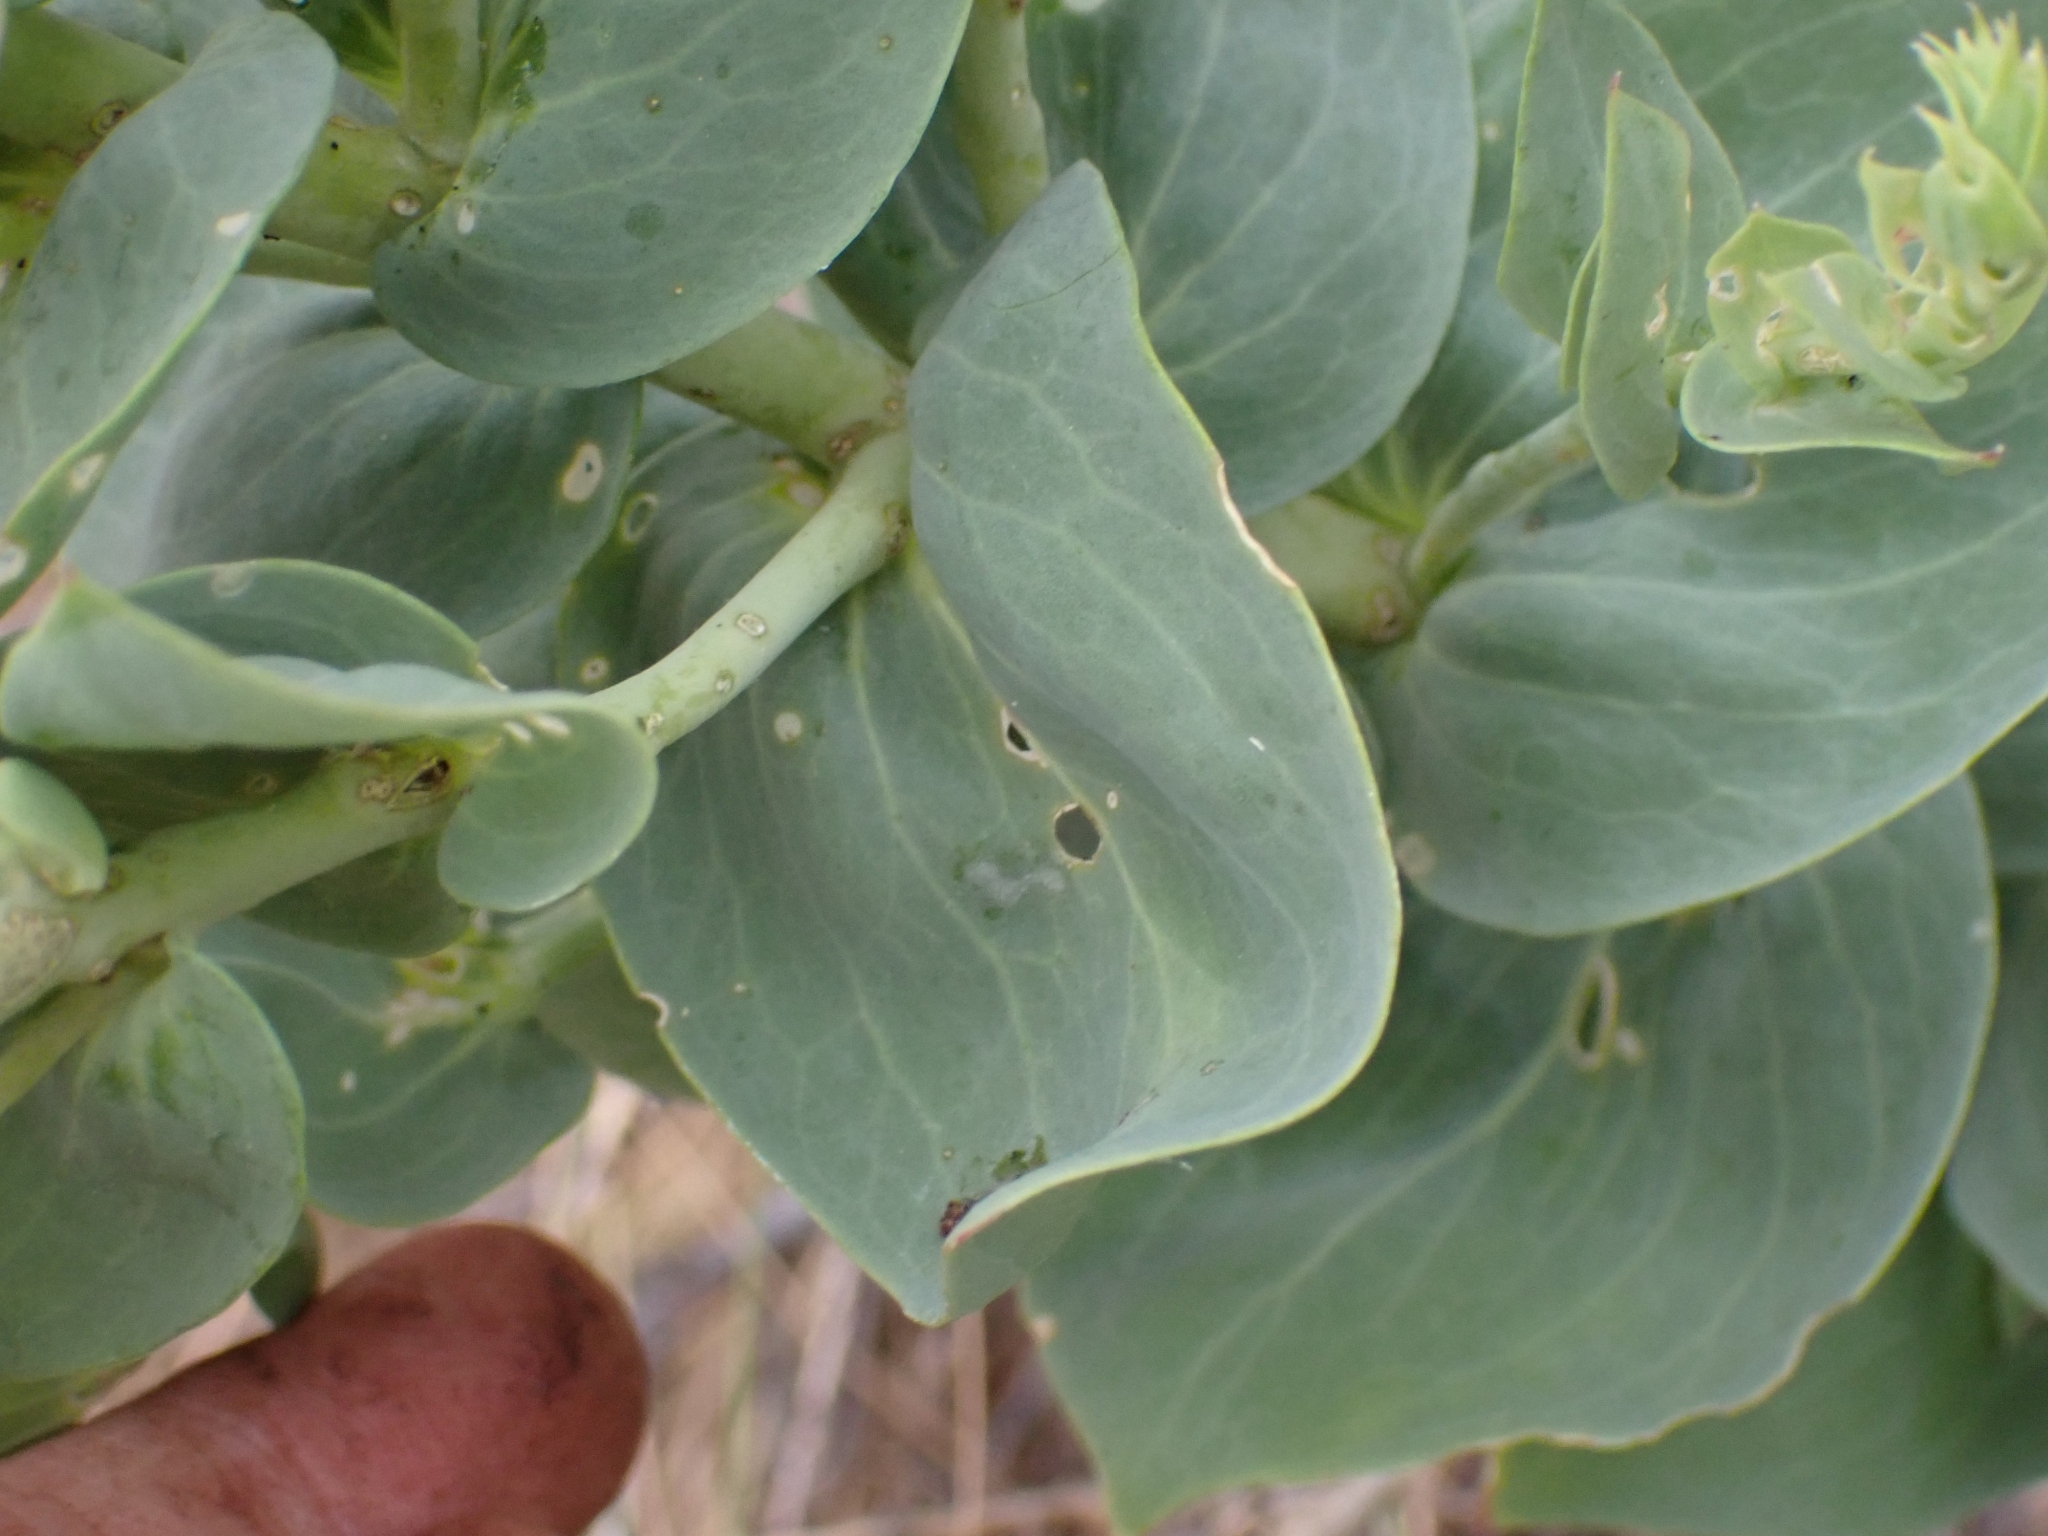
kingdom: Plantae
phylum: Tracheophyta
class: Magnoliopsida
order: Lamiales
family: Plantaginaceae
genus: Linaria
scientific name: Linaria dalmatica
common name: Dalmatian toadflax
